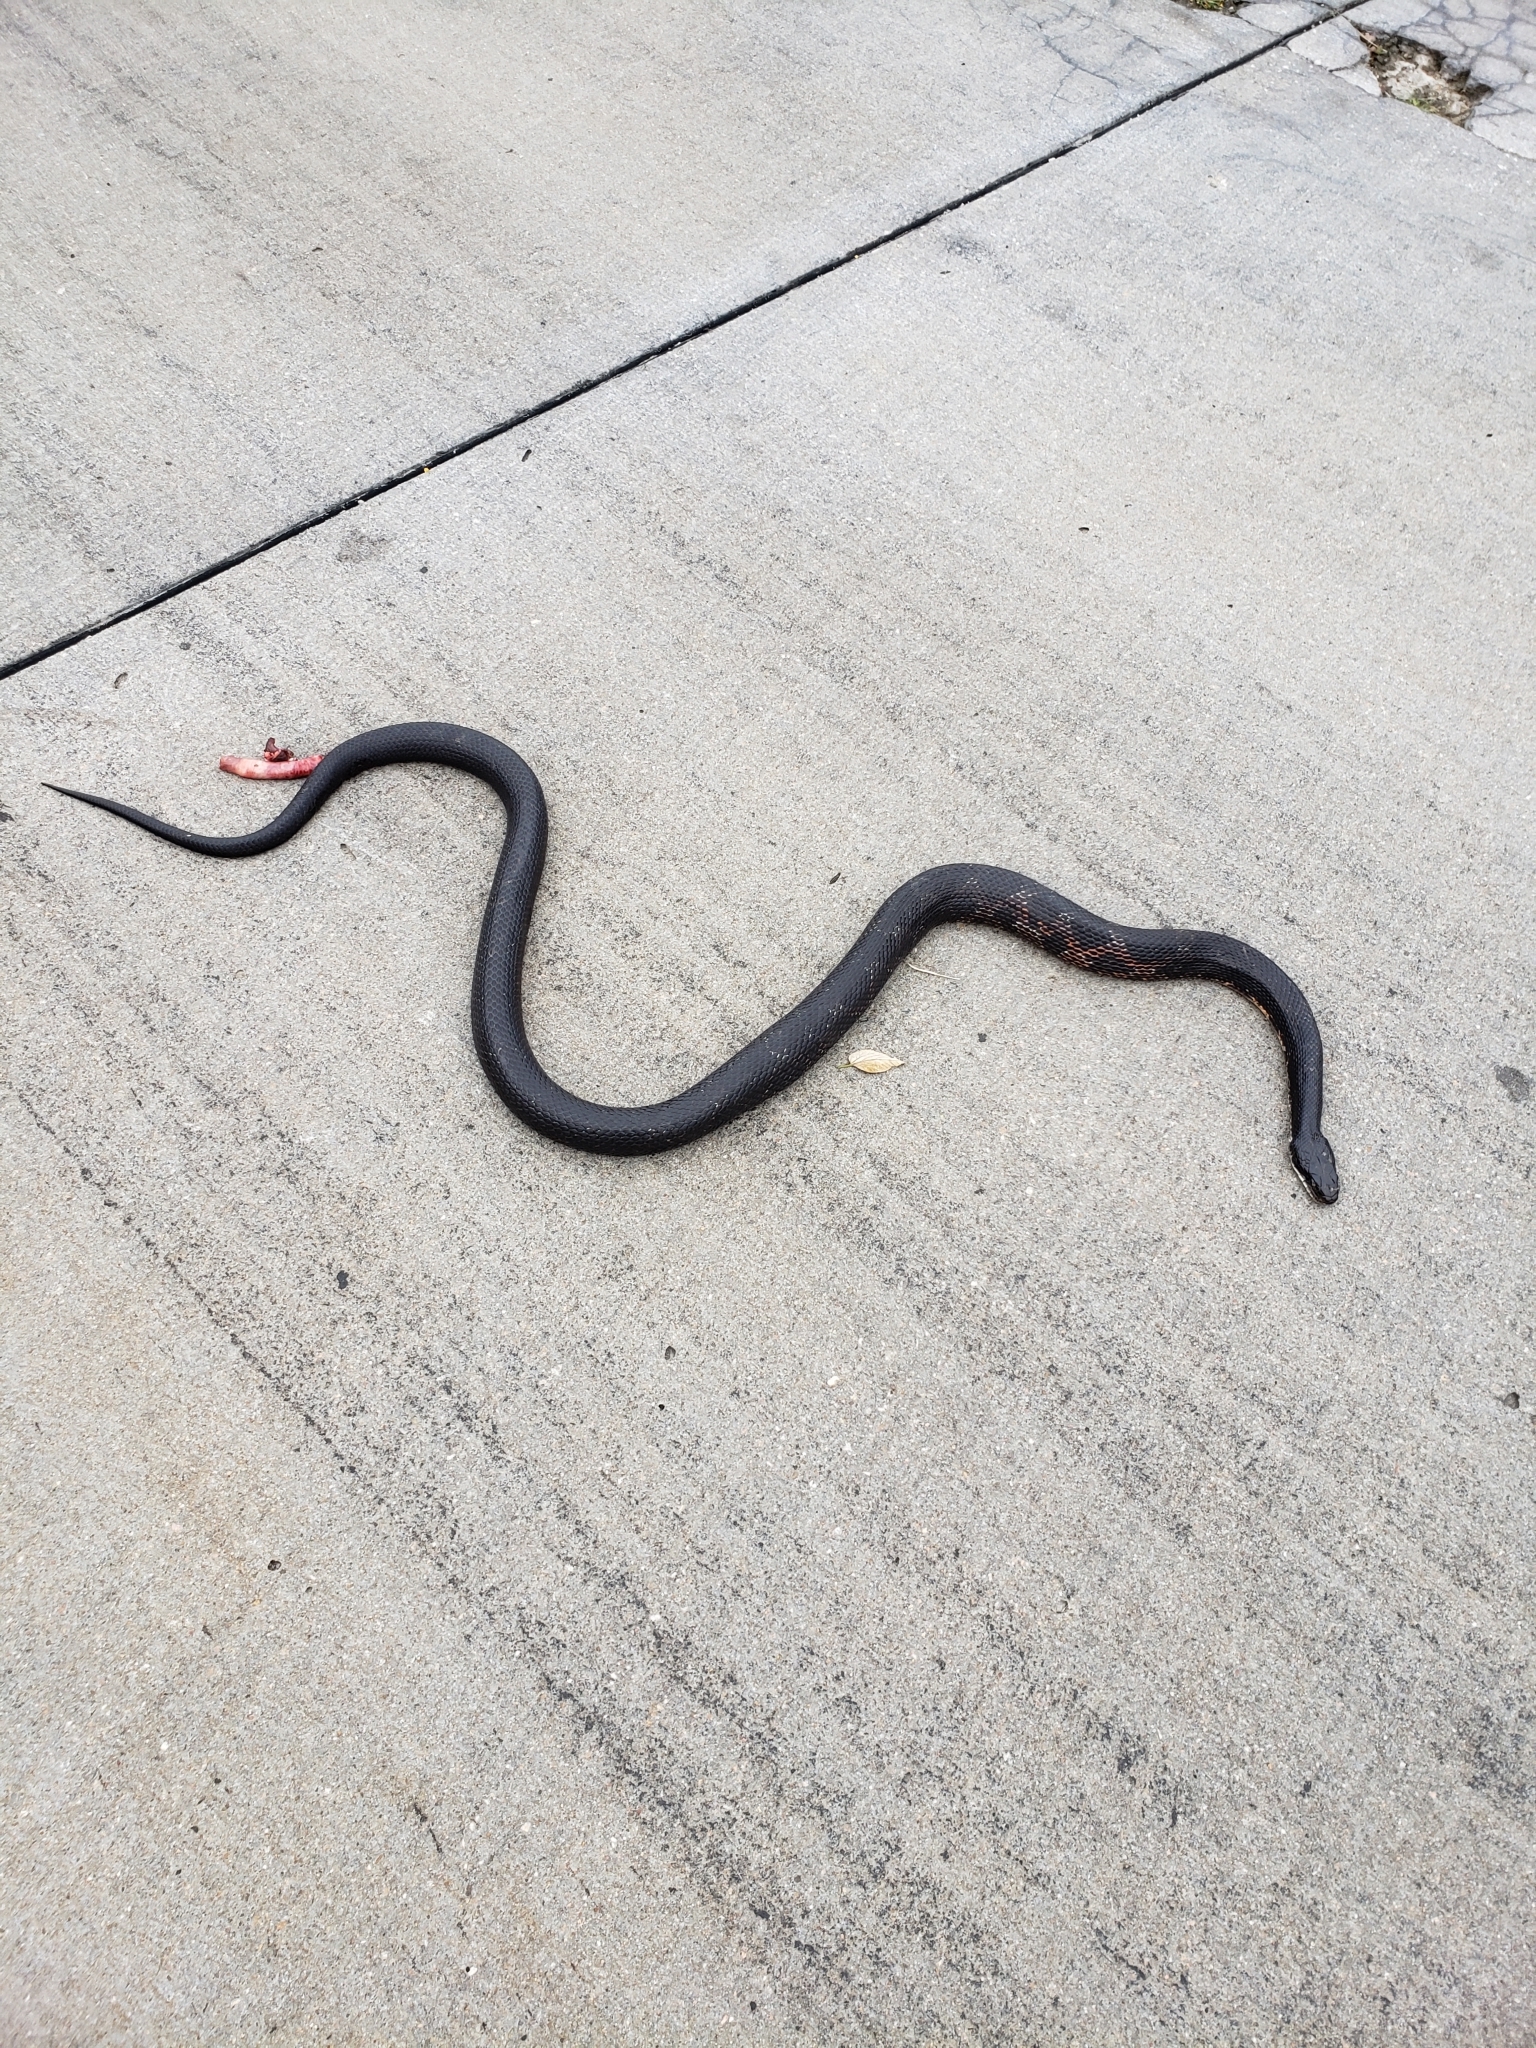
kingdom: Animalia
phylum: Chordata
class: Squamata
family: Colubridae
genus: Pantherophis
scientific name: Pantherophis obsoletus
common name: Black rat snake
